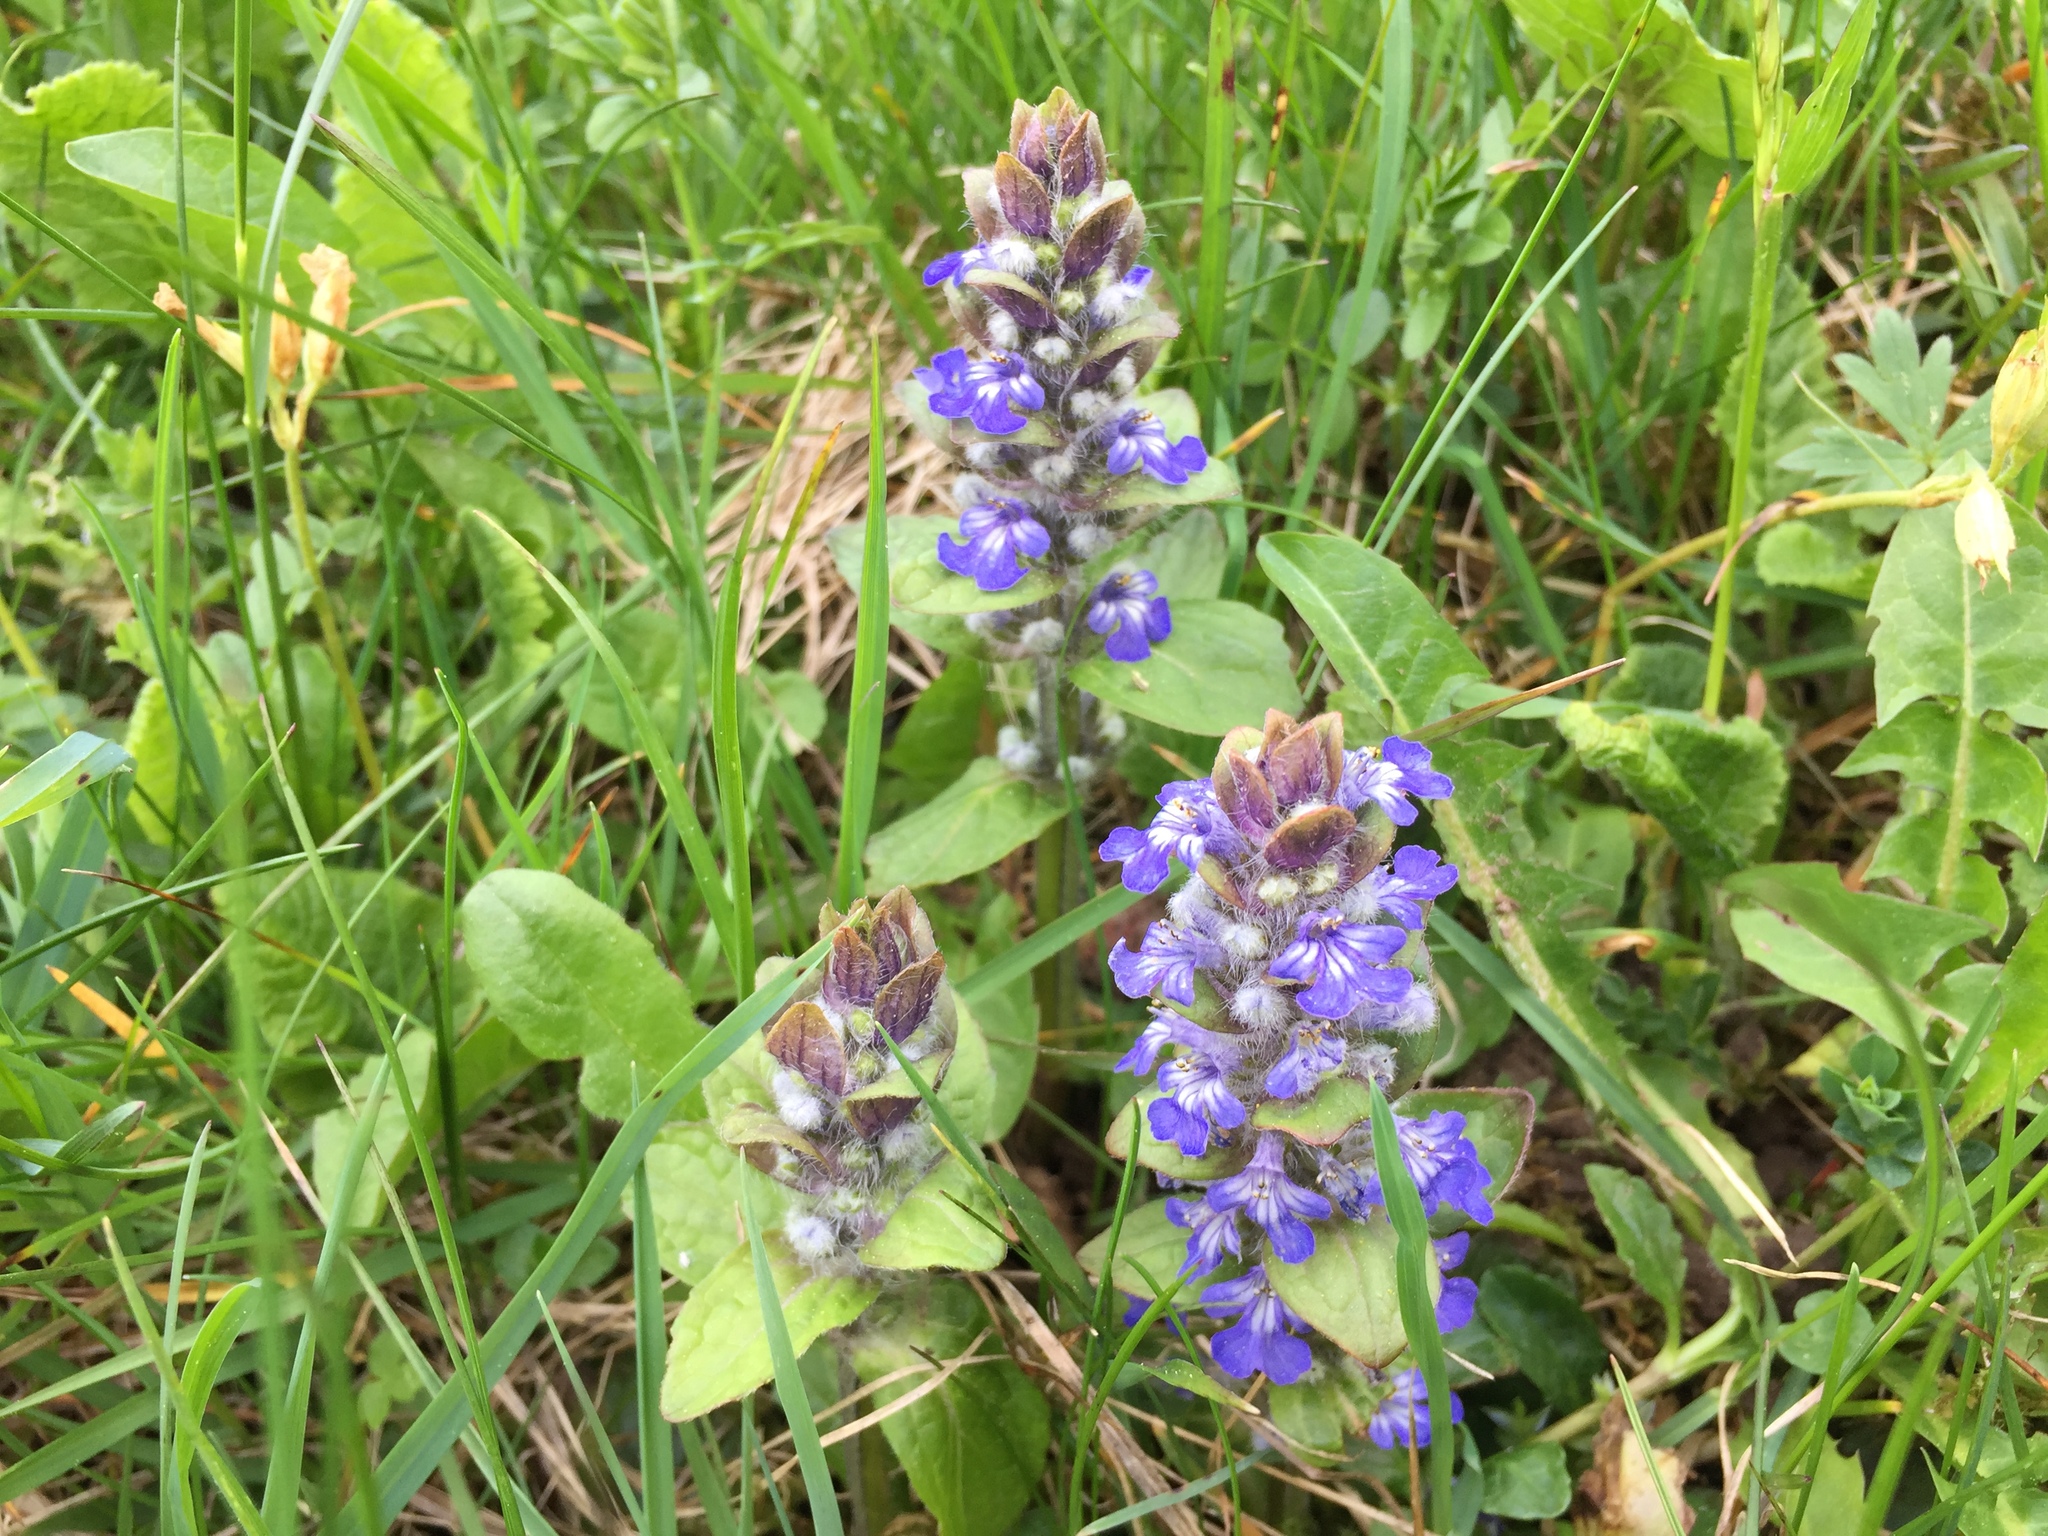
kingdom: Plantae
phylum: Tracheophyta
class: Magnoliopsida
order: Lamiales
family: Lamiaceae
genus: Ajuga
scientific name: Ajuga reptans
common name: Bugle
